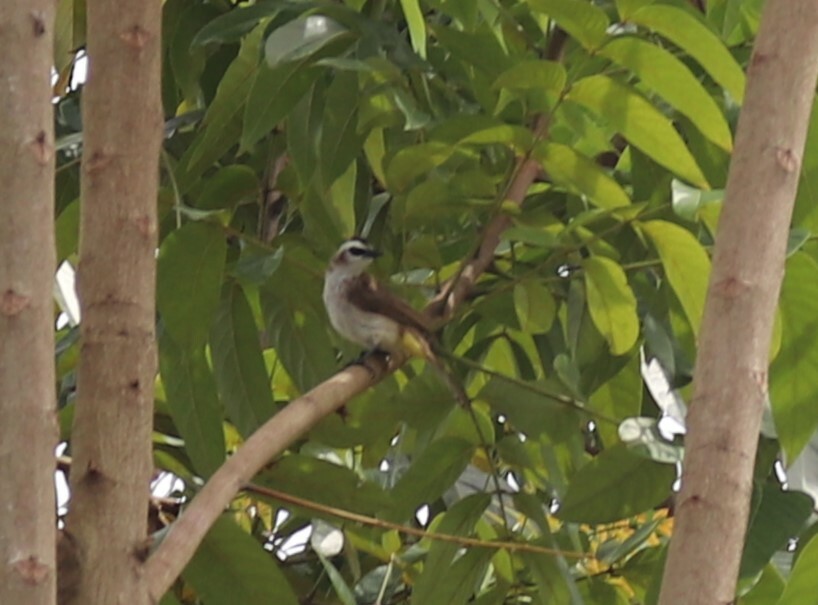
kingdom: Animalia
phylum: Chordata
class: Aves
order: Passeriformes
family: Pycnonotidae
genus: Pycnonotus
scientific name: Pycnonotus goiavier
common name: Yellow-vented bulbul
